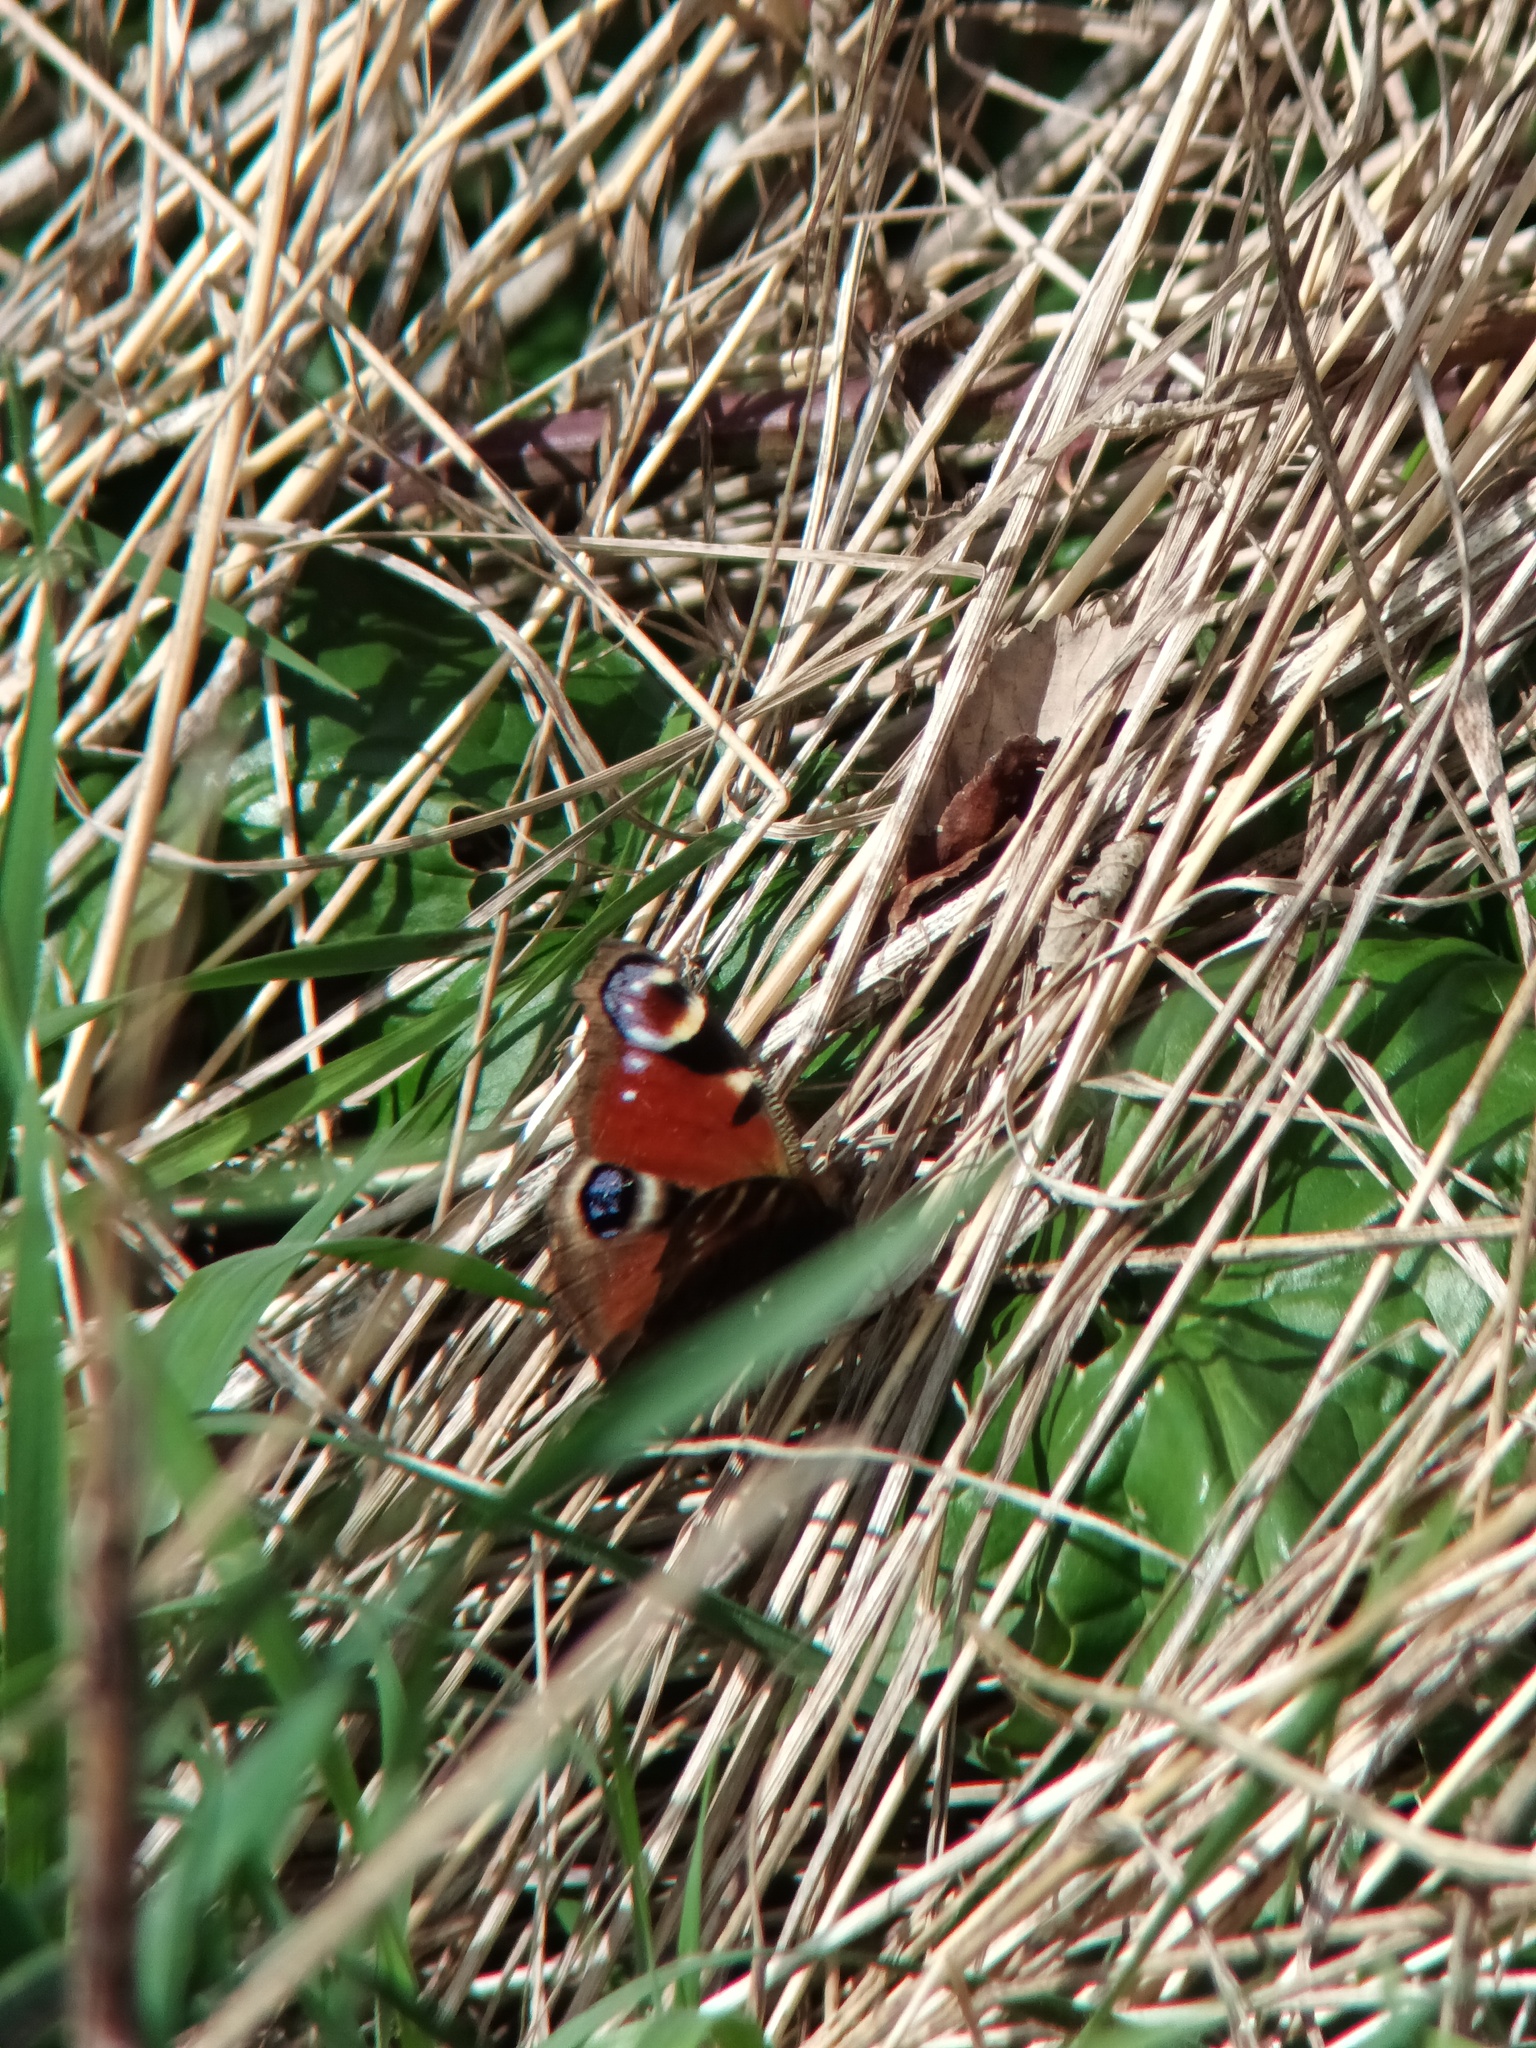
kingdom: Animalia
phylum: Arthropoda
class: Insecta
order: Lepidoptera
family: Nymphalidae
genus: Aglais
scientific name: Aglais io
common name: Peacock
